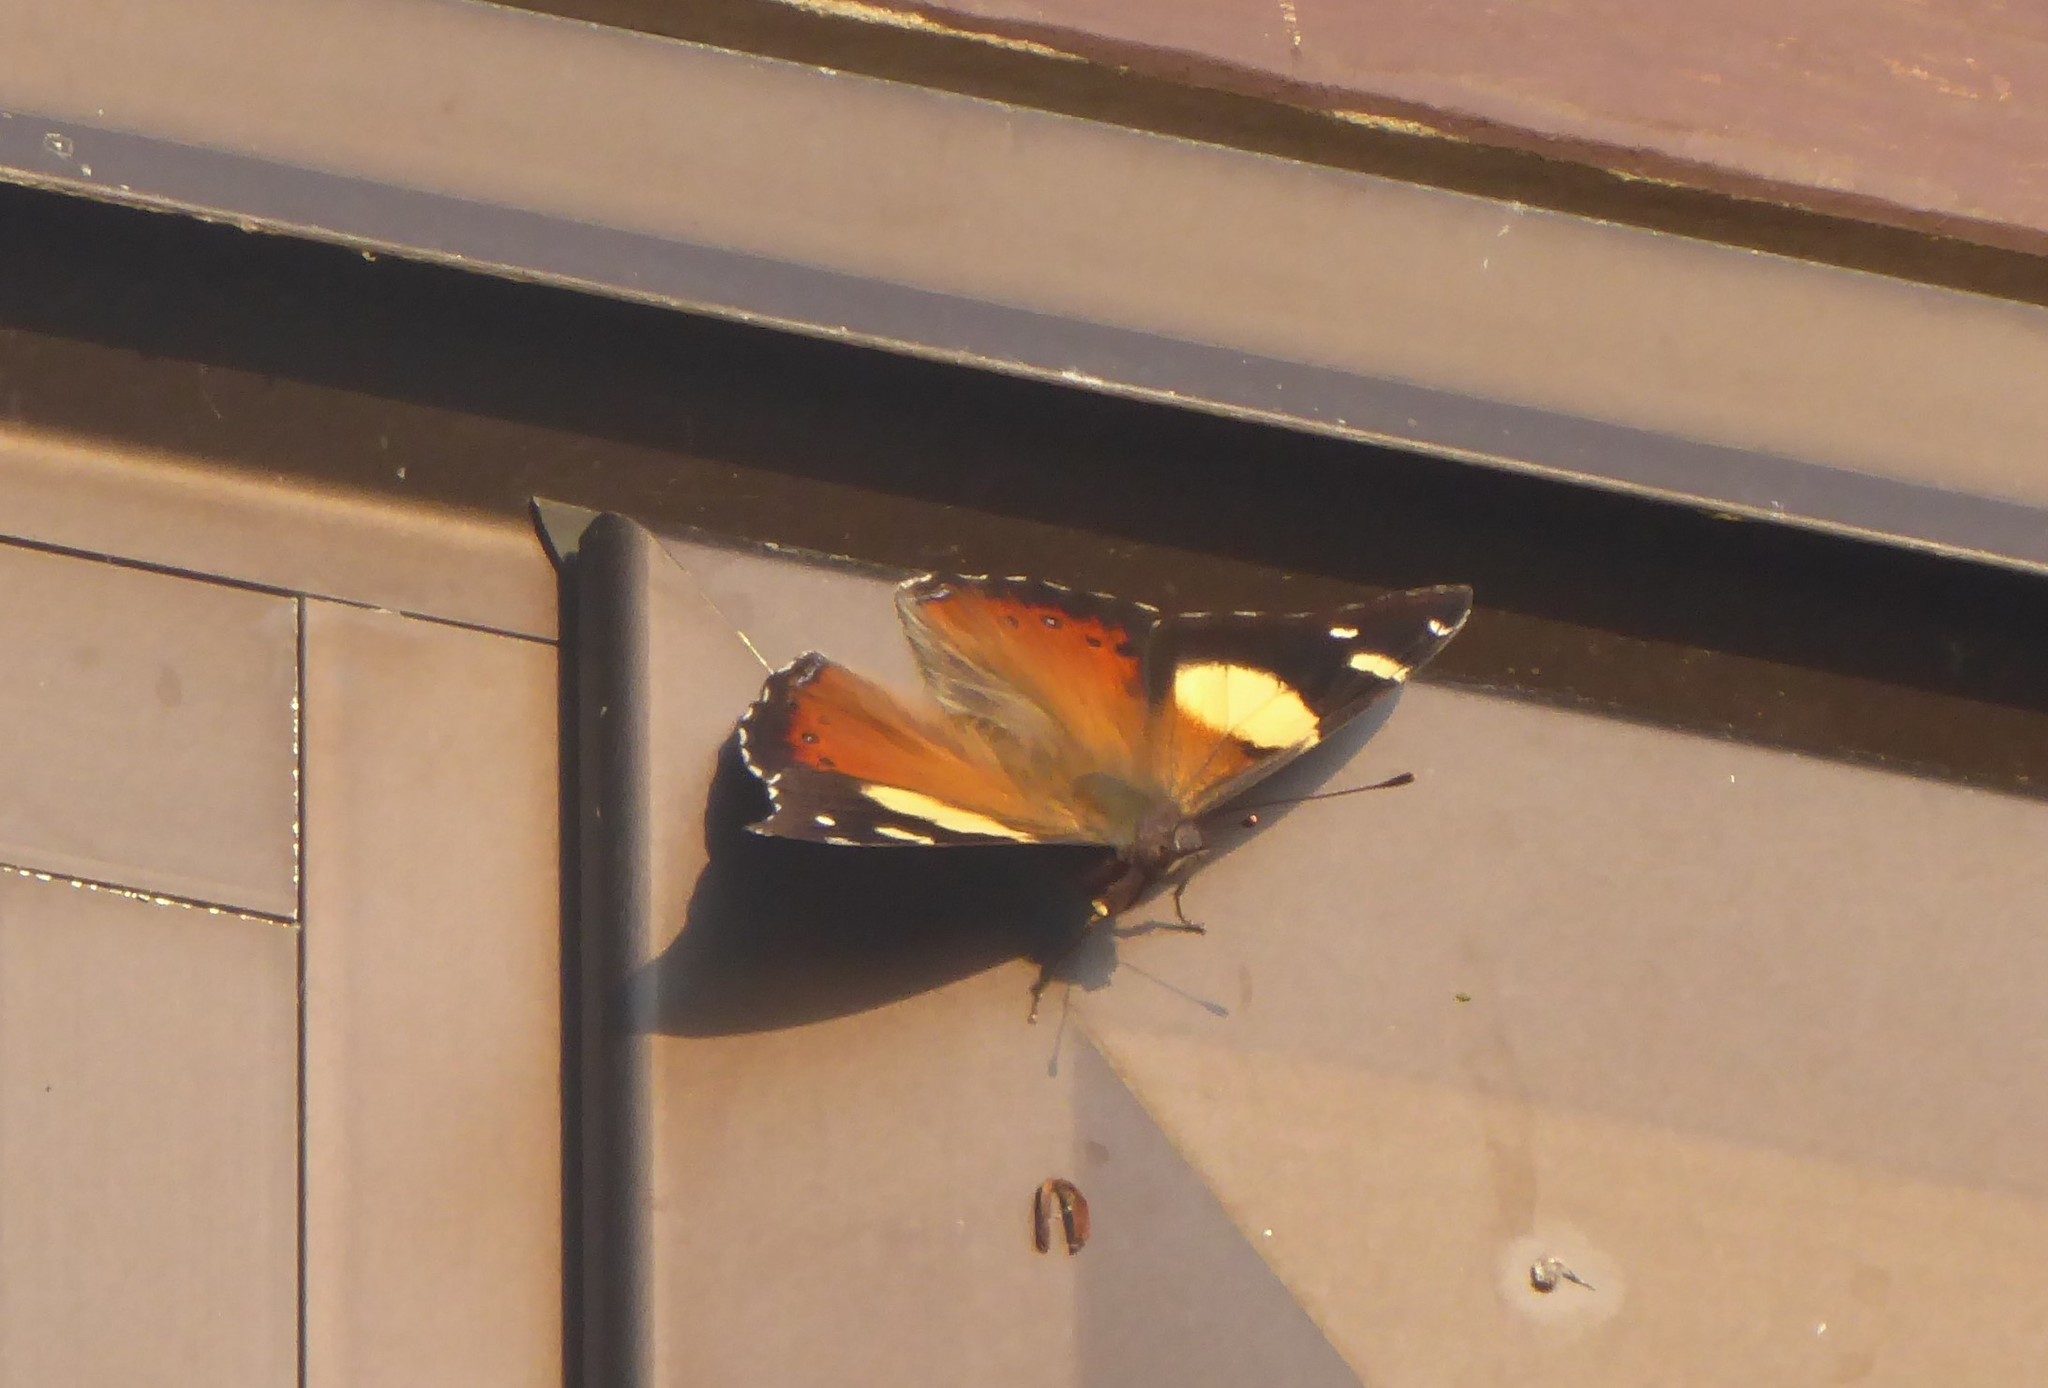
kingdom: Animalia
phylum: Arthropoda
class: Insecta
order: Lepidoptera
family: Nymphalidae
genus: Vanessa
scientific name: Vanessa itea
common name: Yellow admiral
